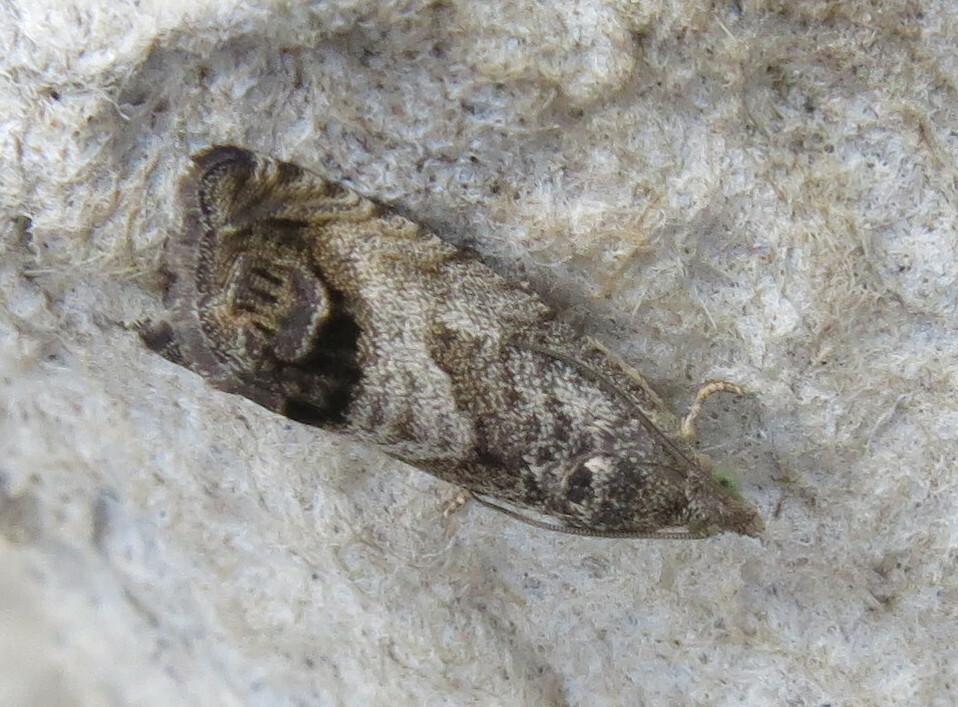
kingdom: Animalia
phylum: Arthropoda
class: Insecta
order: Lepidoptera
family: Tortricidae
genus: Cydia
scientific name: Cydia splendana
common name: De: kastanienwickler, eichenwickler es: oruga de la castaña fr: carpocapse des châtaignes it: cidia o tortrice tardiva delle castagne pt: bichado das castanhas gb: acorn moth, chestnut fruit tortrix
